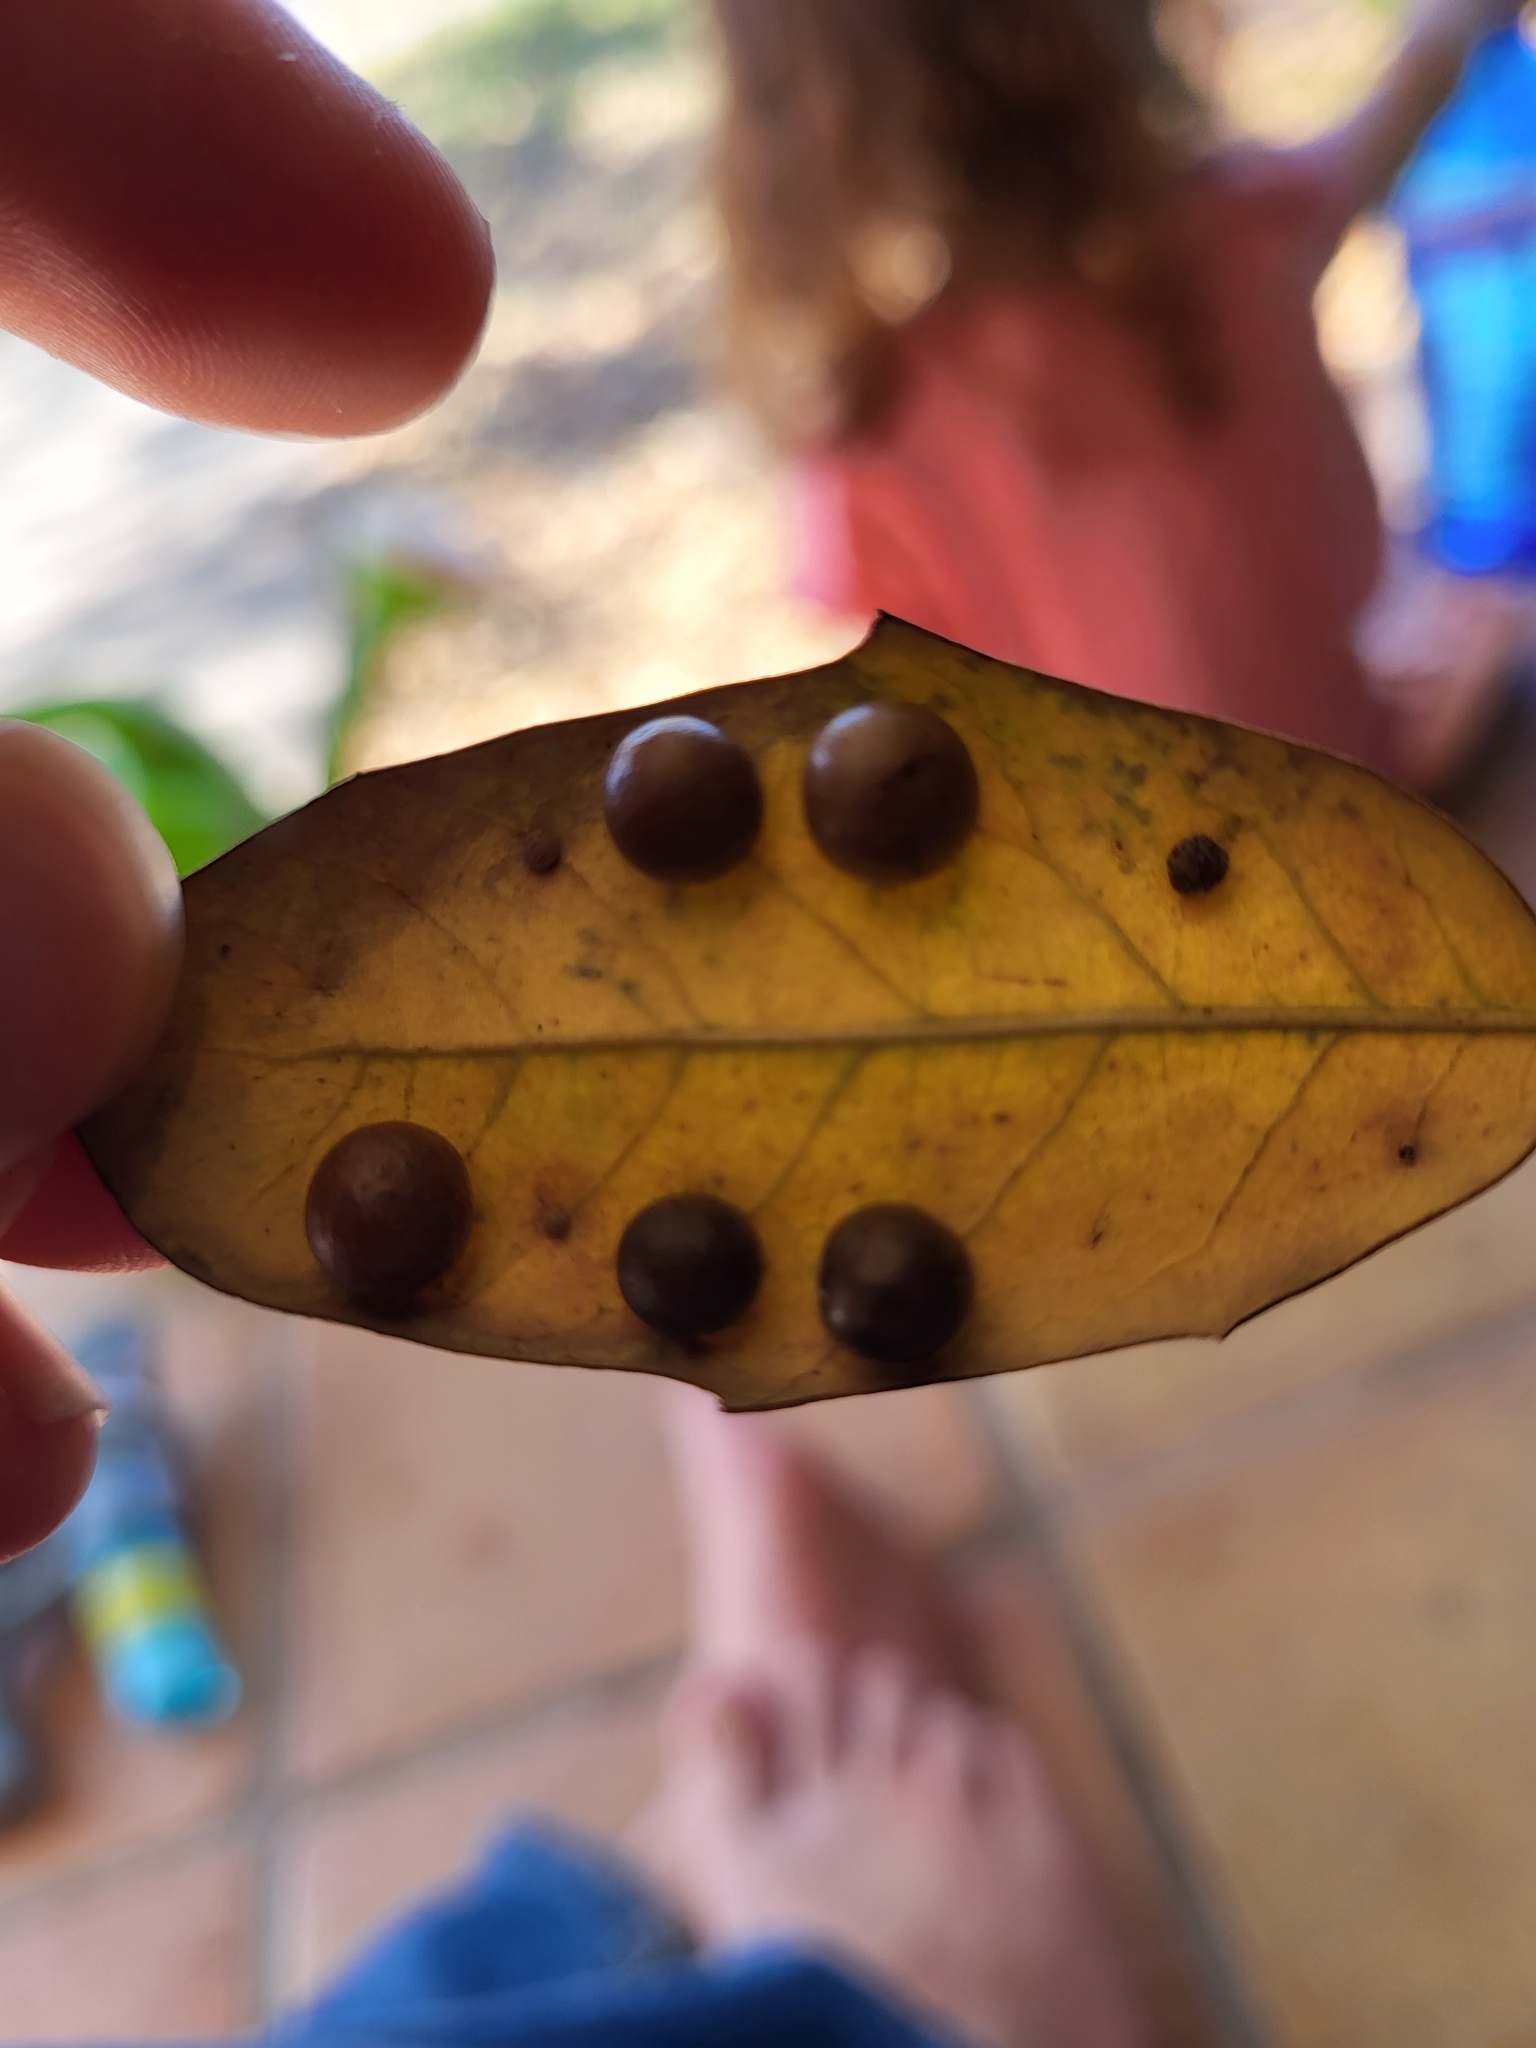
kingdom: Animalia
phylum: Arthropoda
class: Insecta
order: Hymenoptera
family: Cynipidae
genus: Belonocnema
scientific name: Belonocnema kinseyi
